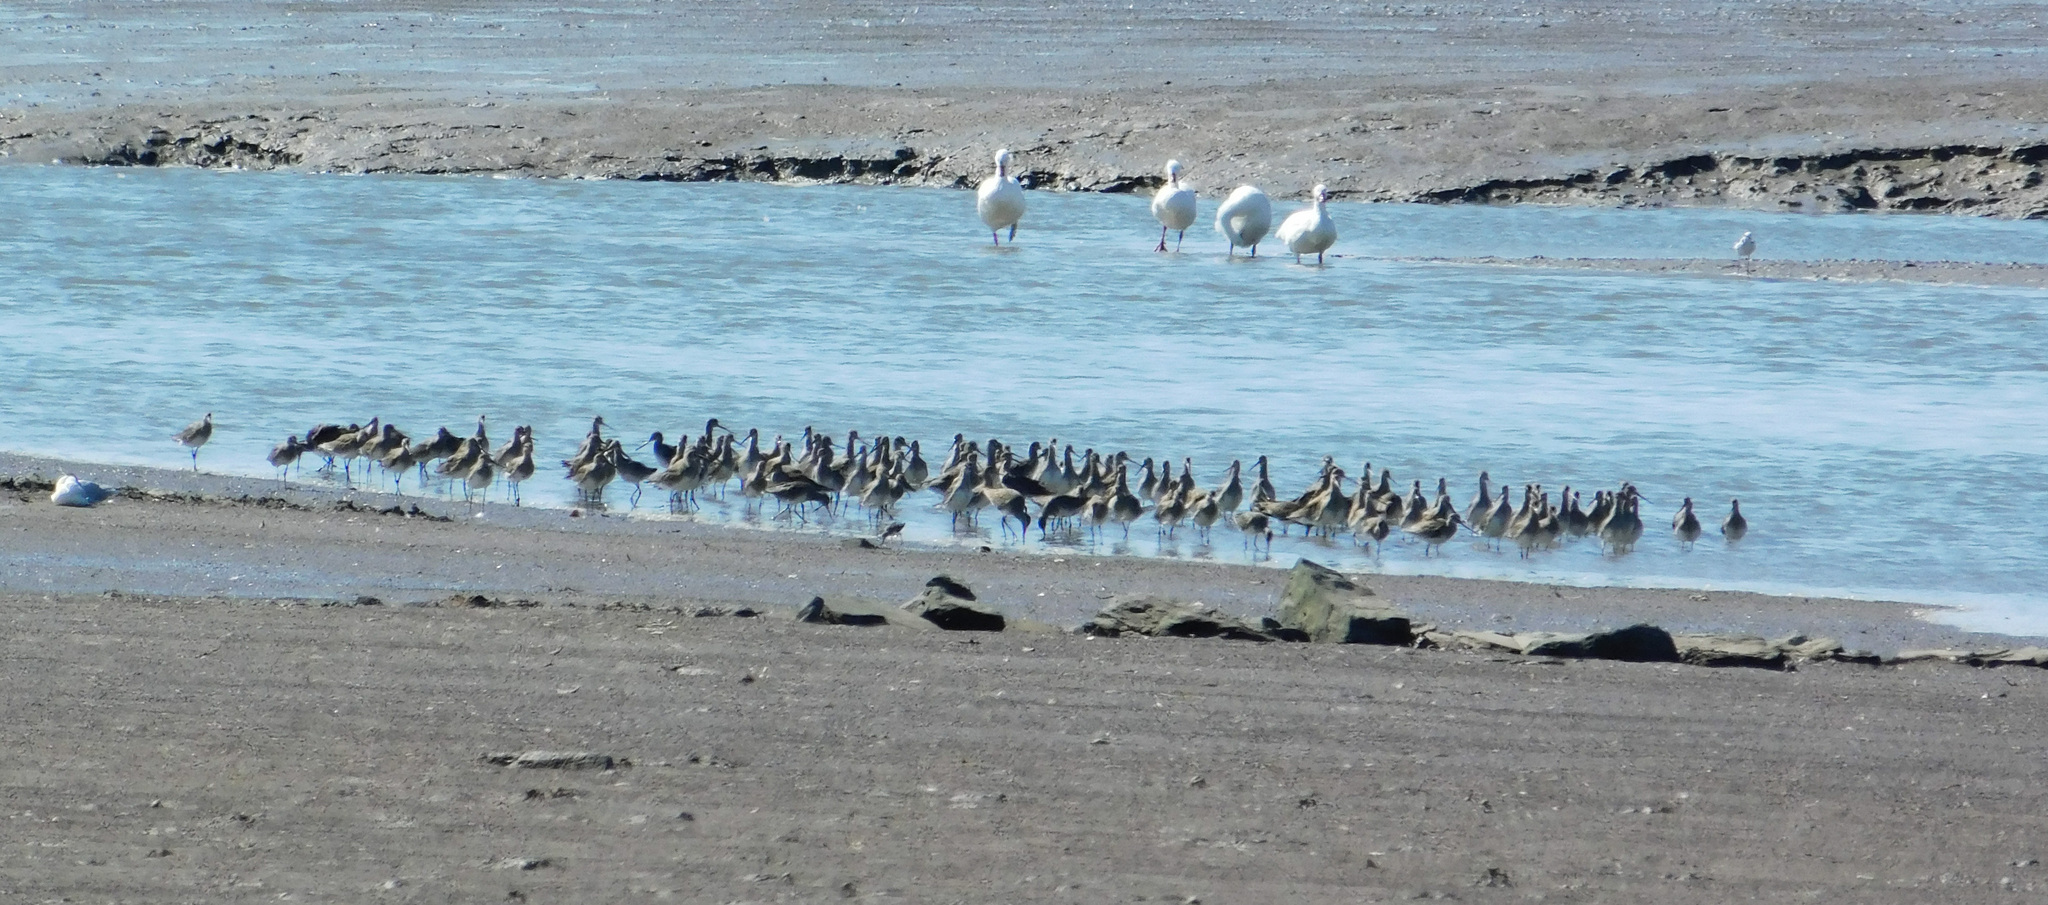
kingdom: Animalia
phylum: Chordata
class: Aves
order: Charadriiformes
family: Scolopacidae
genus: Limosa
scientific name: Limosa haemastica
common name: Hudsonian godwit
